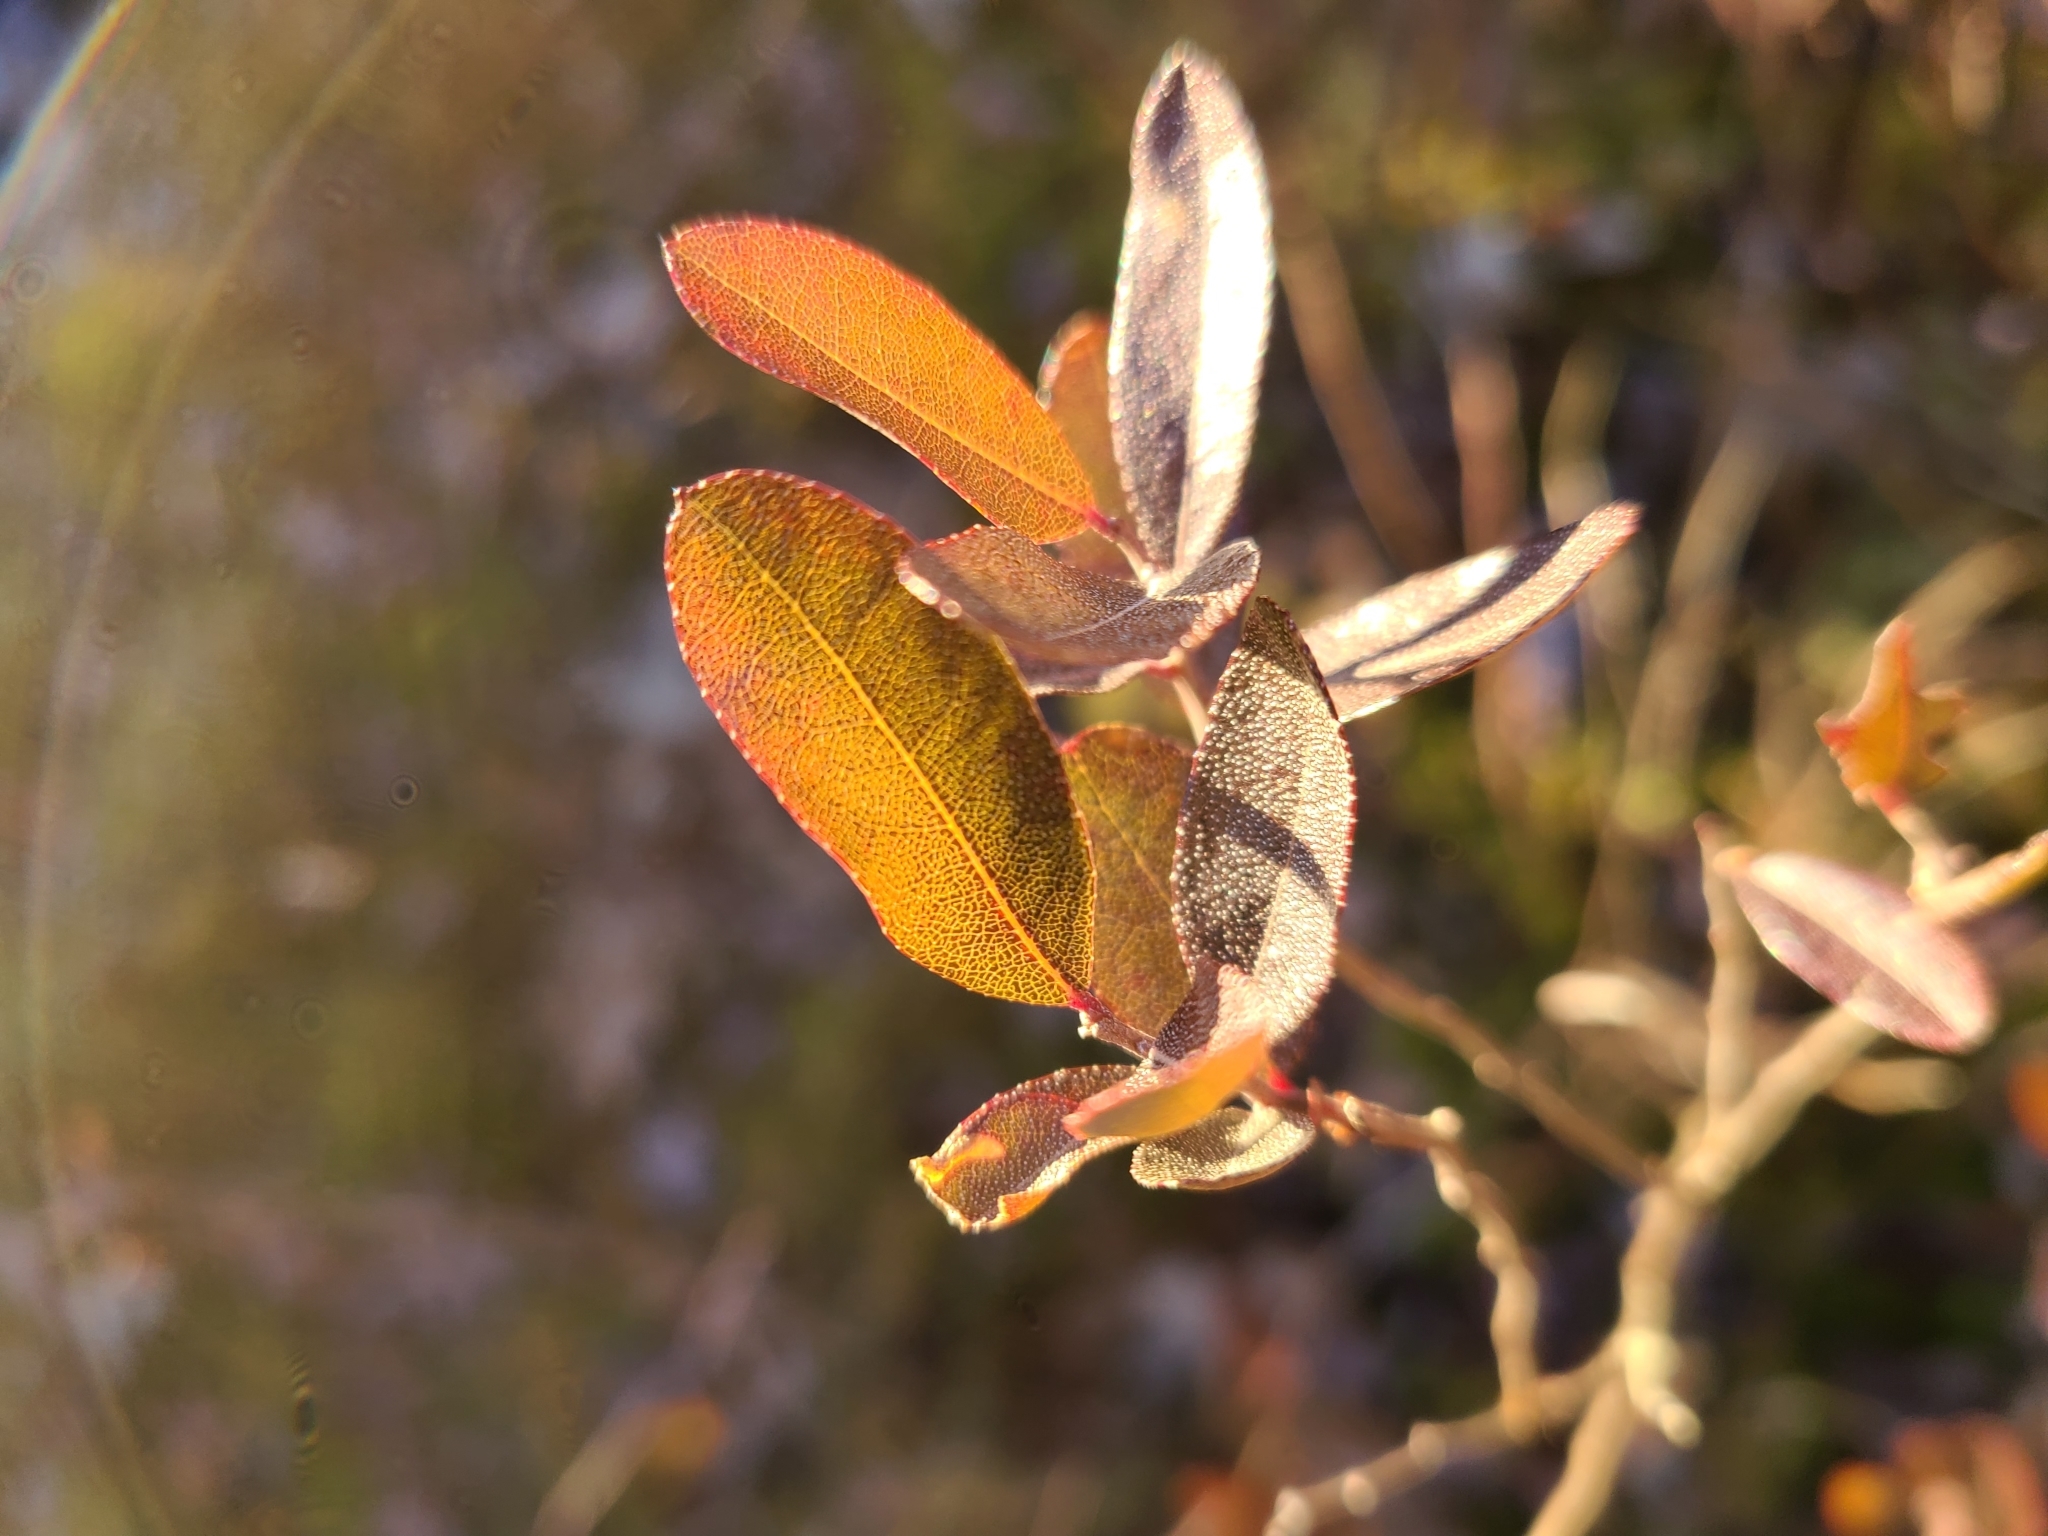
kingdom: Plantae
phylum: Tracheophyta
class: Magnoliopsida
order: Ericales
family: Ericaceae
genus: Chamaedaphne
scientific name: Chamaedaphne calyculata
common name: Leatherleaf
